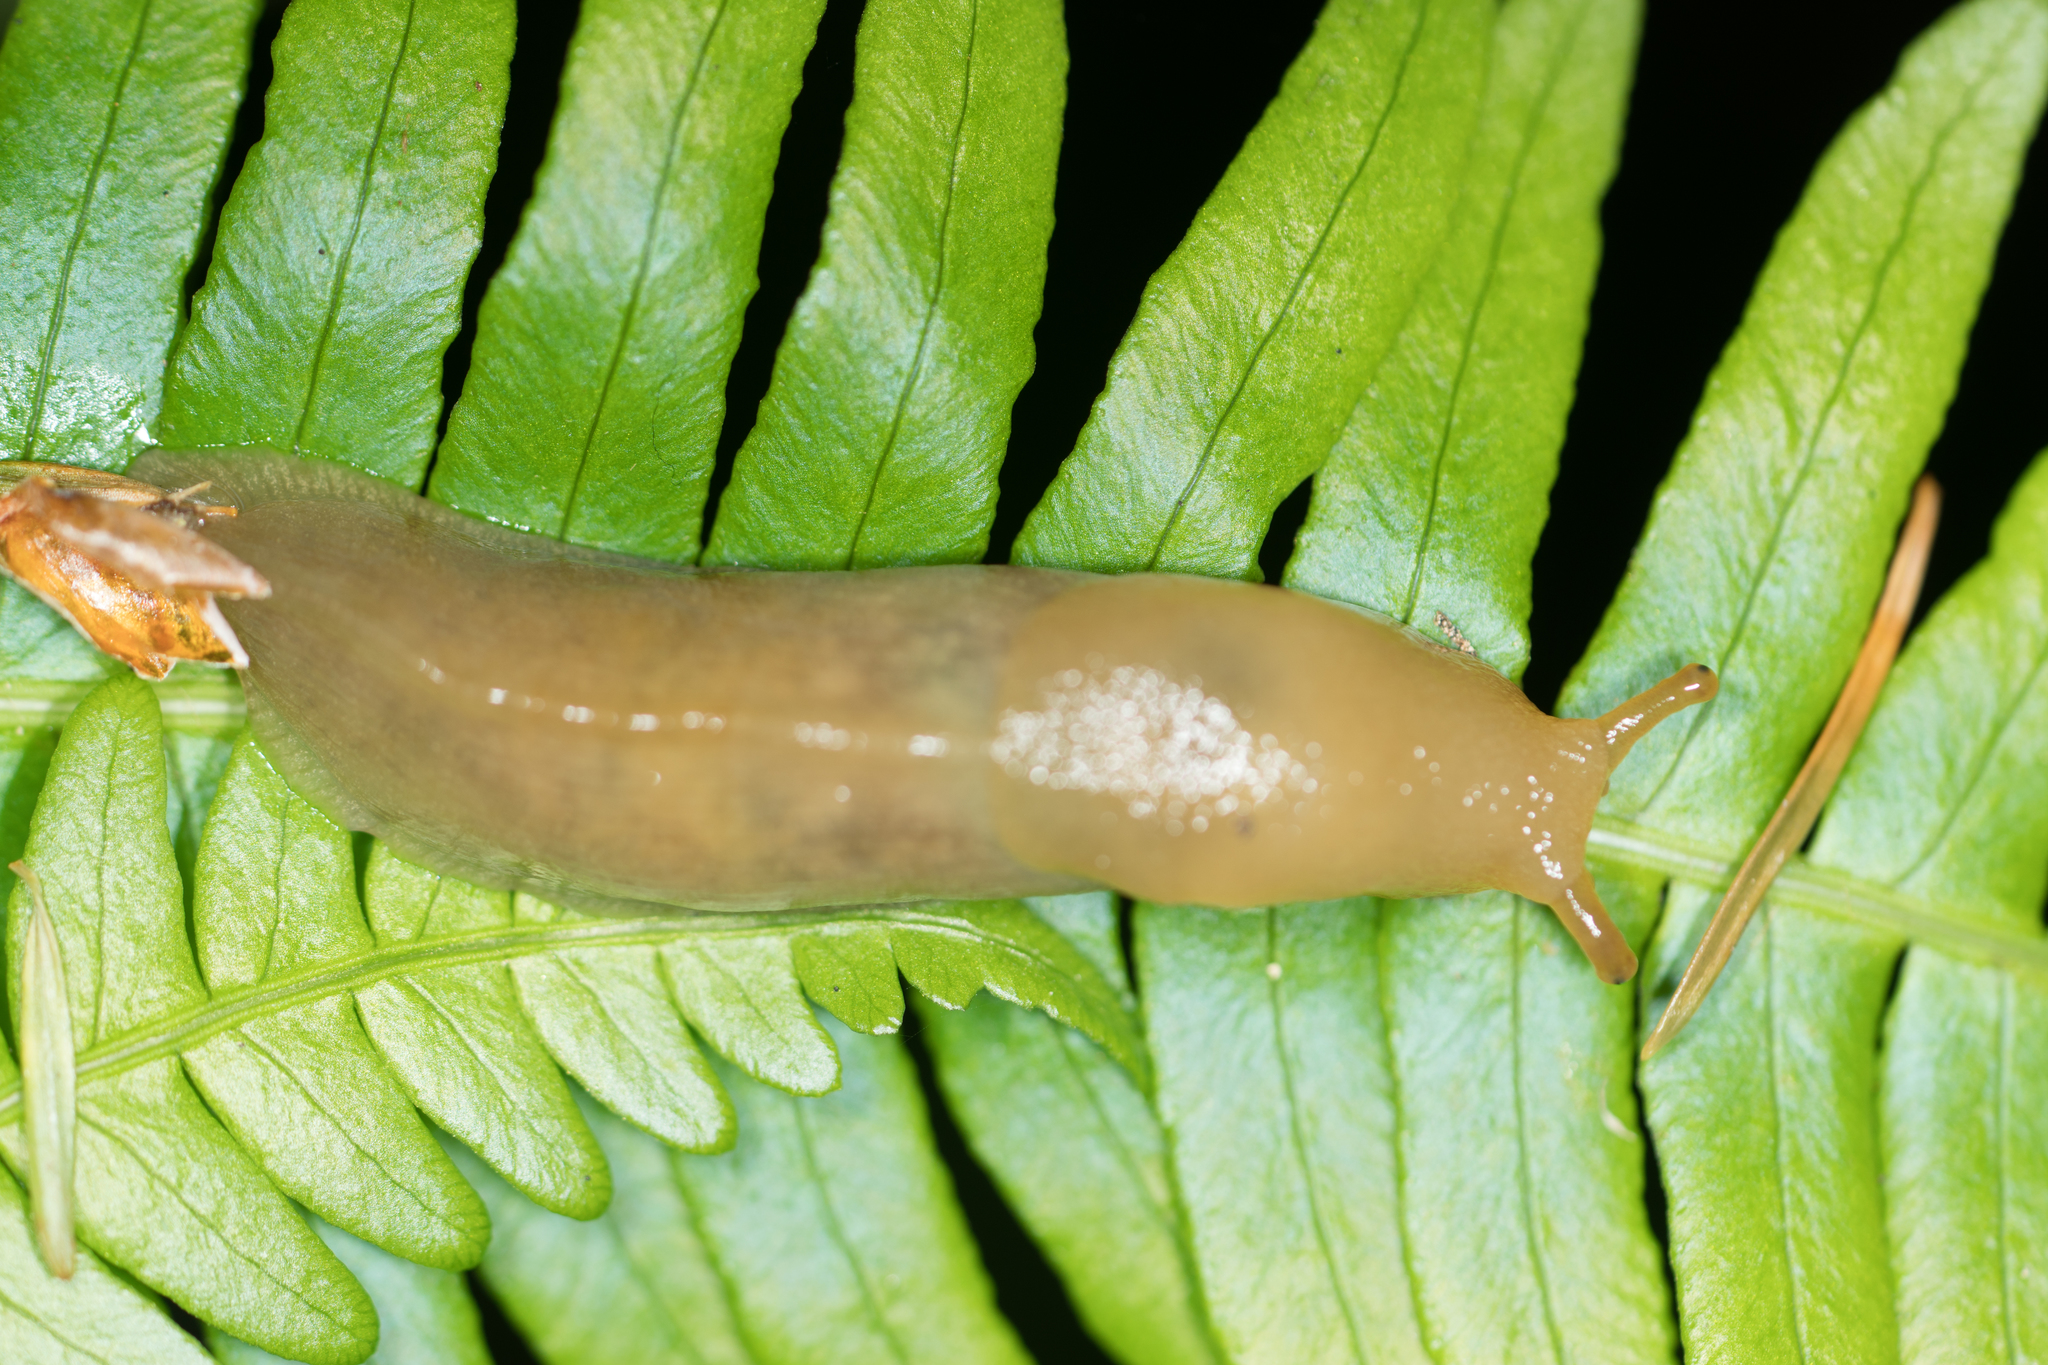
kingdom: Animalia
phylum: Mollusca
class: Gastropoda
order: Stylommatophora
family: Ariolimacidae
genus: Ariolimax
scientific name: Ariolimax columbianus
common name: Pacific banana slug
